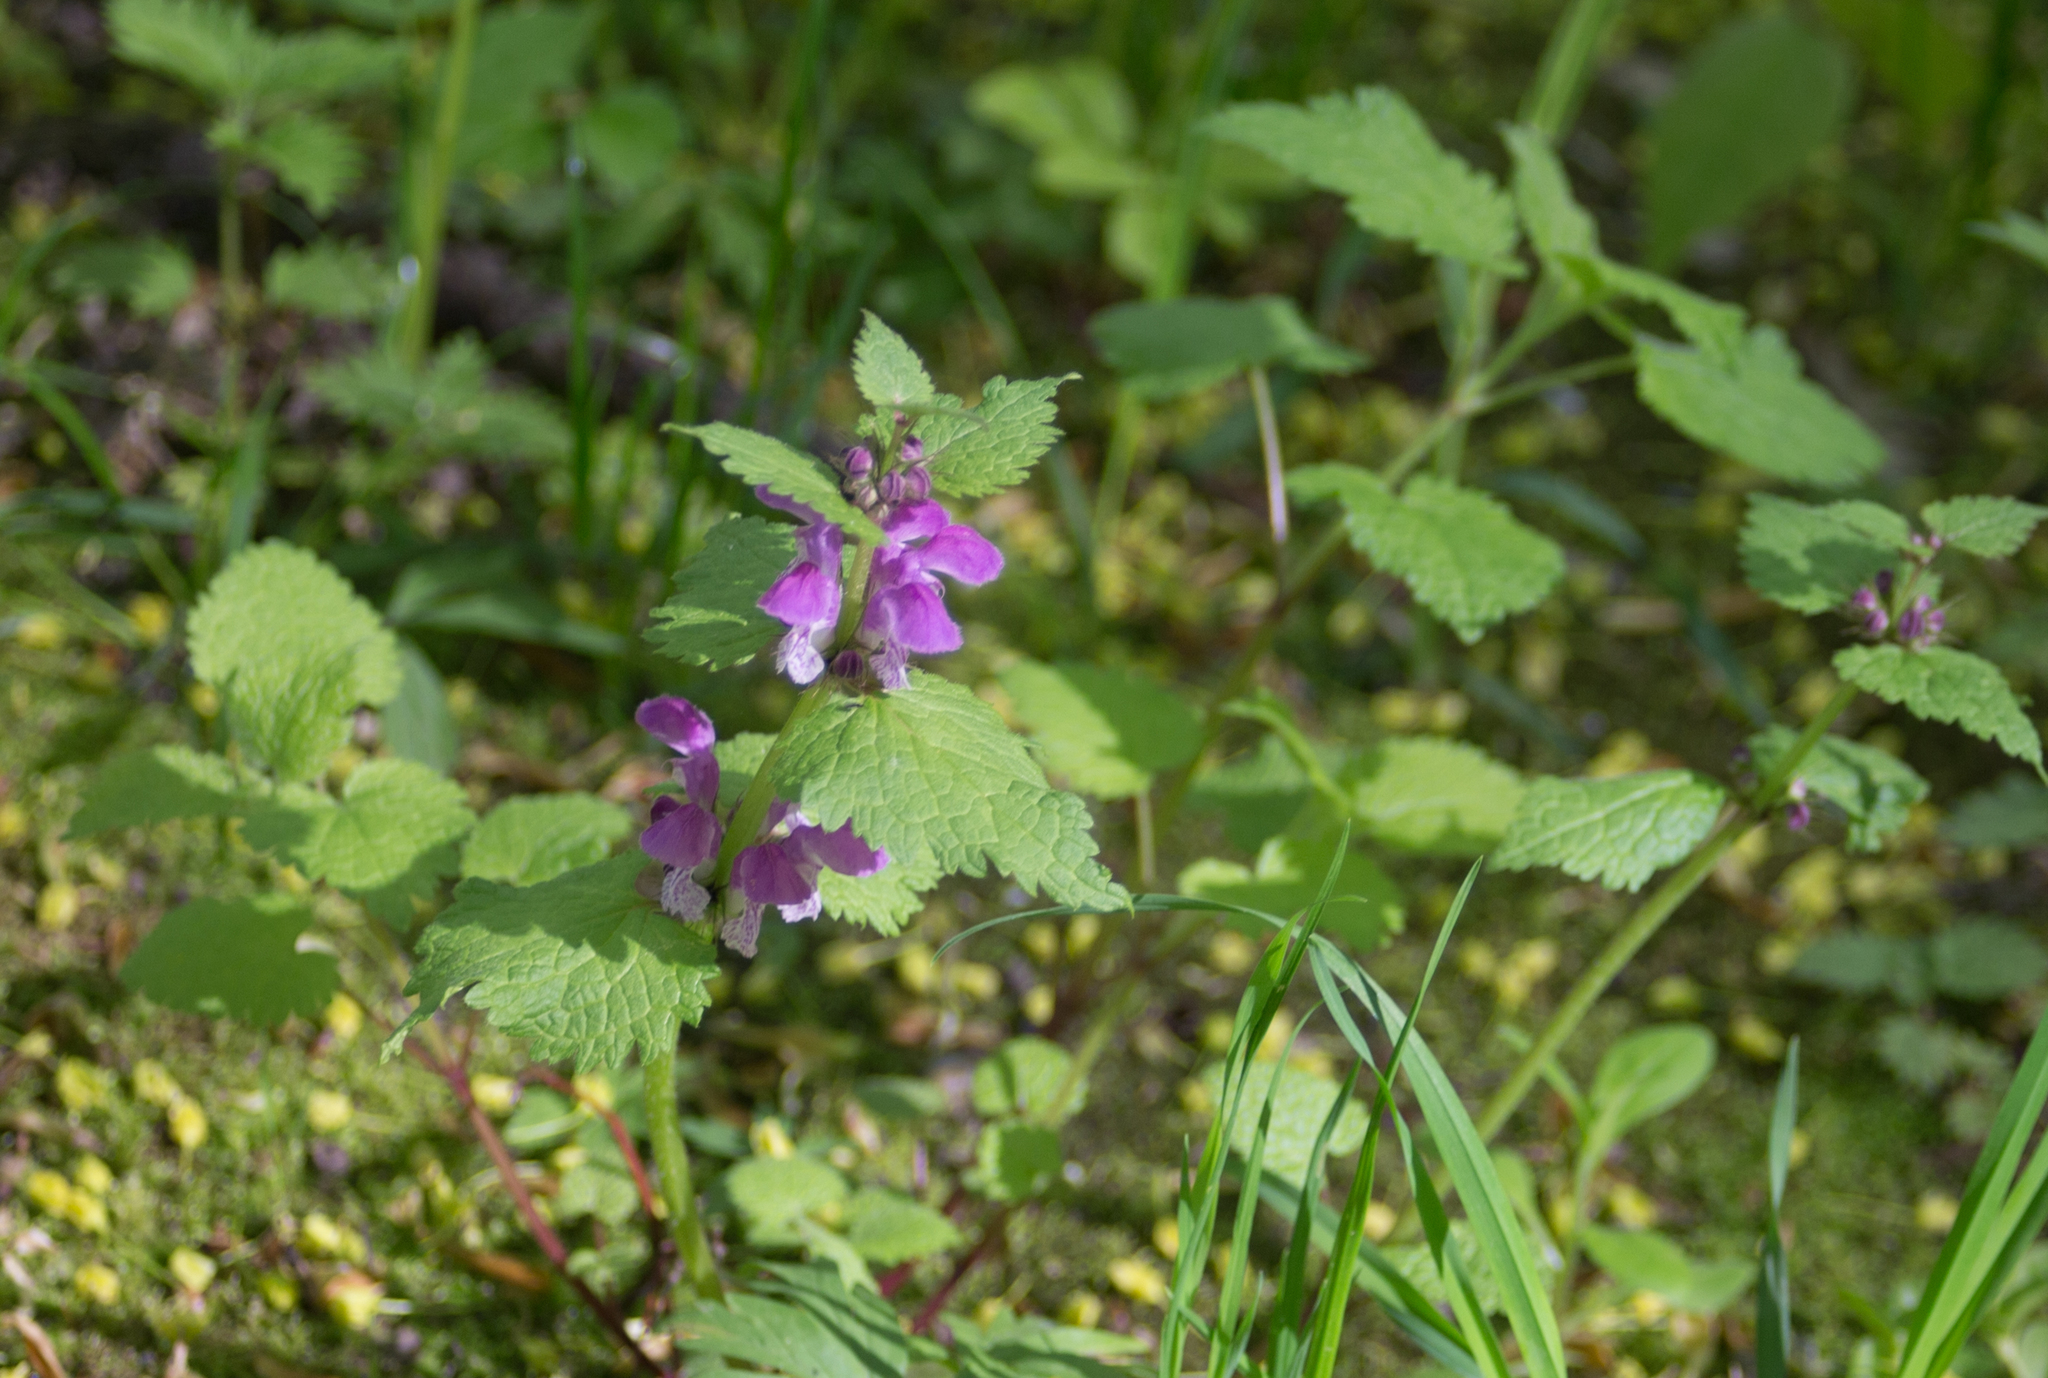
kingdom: Plantae
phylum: Tracheophyta
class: Magnoliopsida
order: Lamiales
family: Lamiaceae
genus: Lamium
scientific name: Lamium maculatum
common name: Spotted dead-nettle
